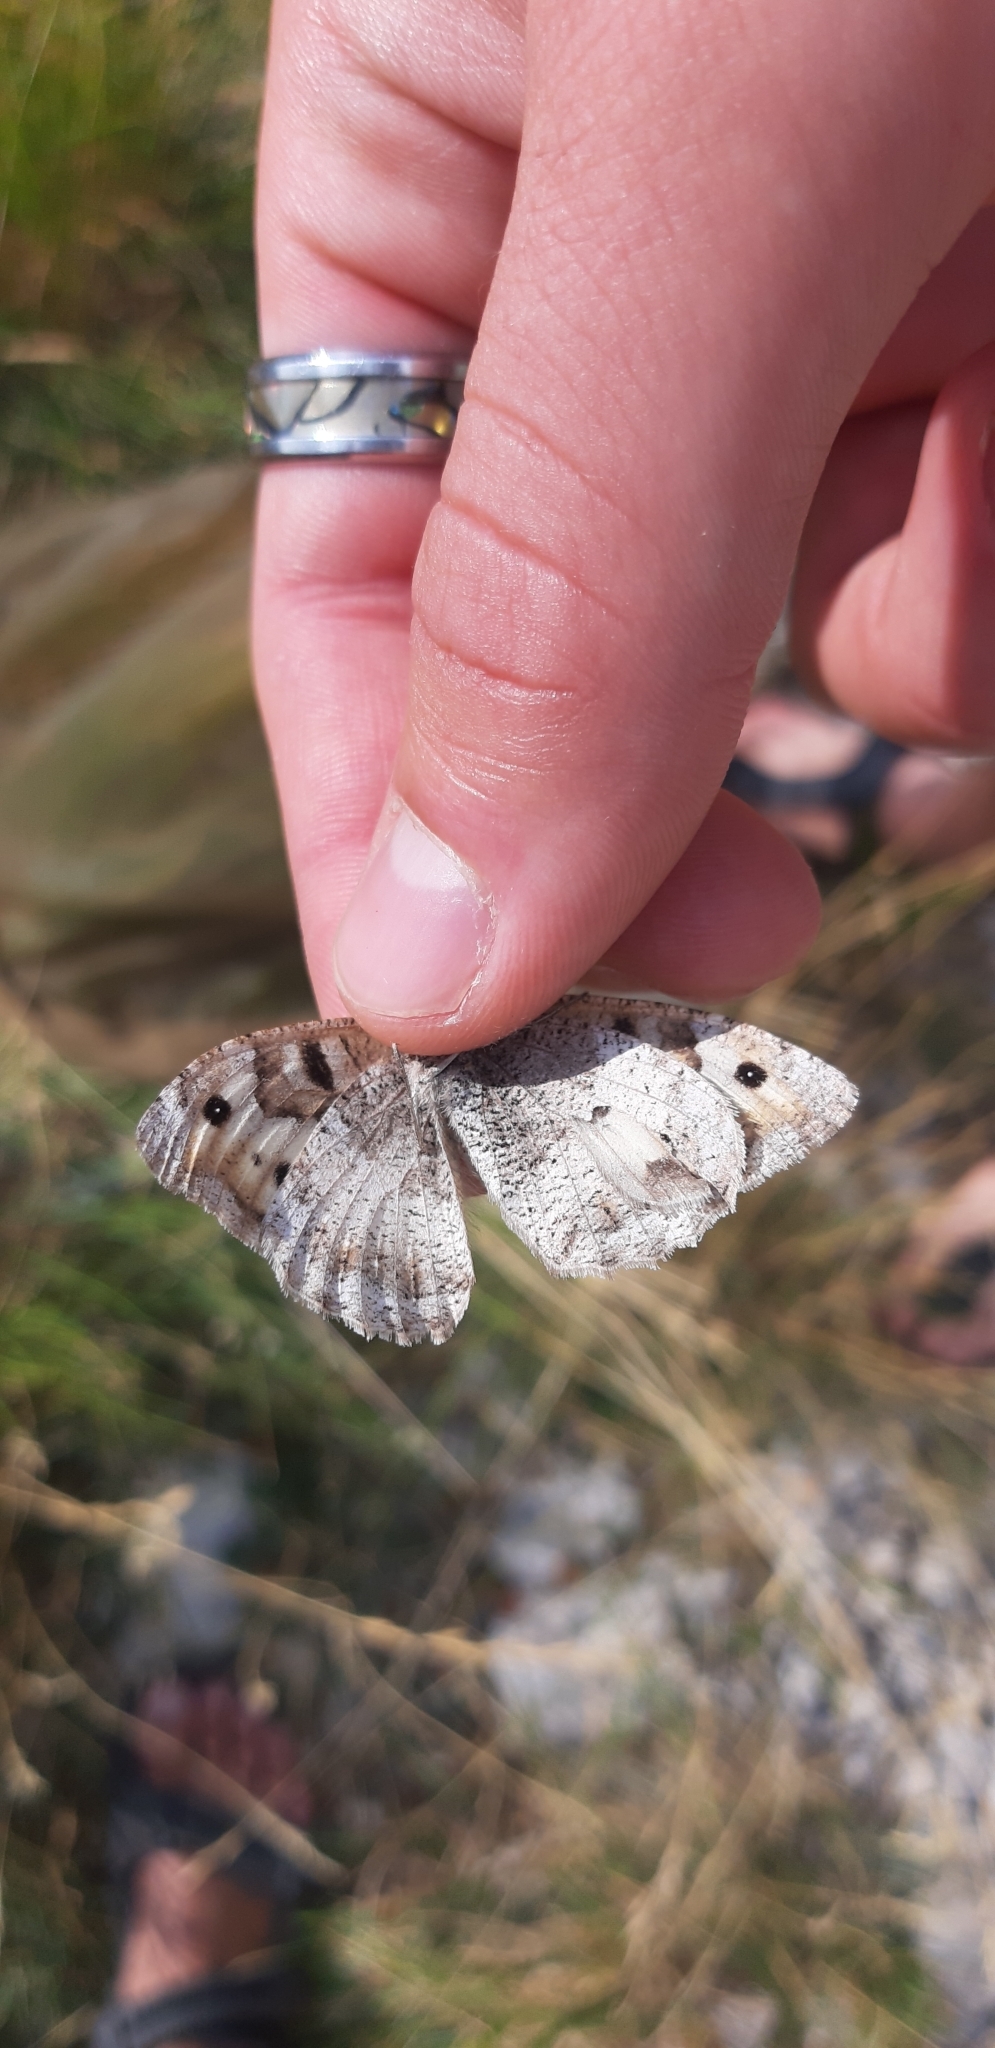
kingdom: Animalia
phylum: Arthropoda
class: Insecta
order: Lepidoptera
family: Nymphalidae
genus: Satyrus
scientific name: Satyrus briseis
